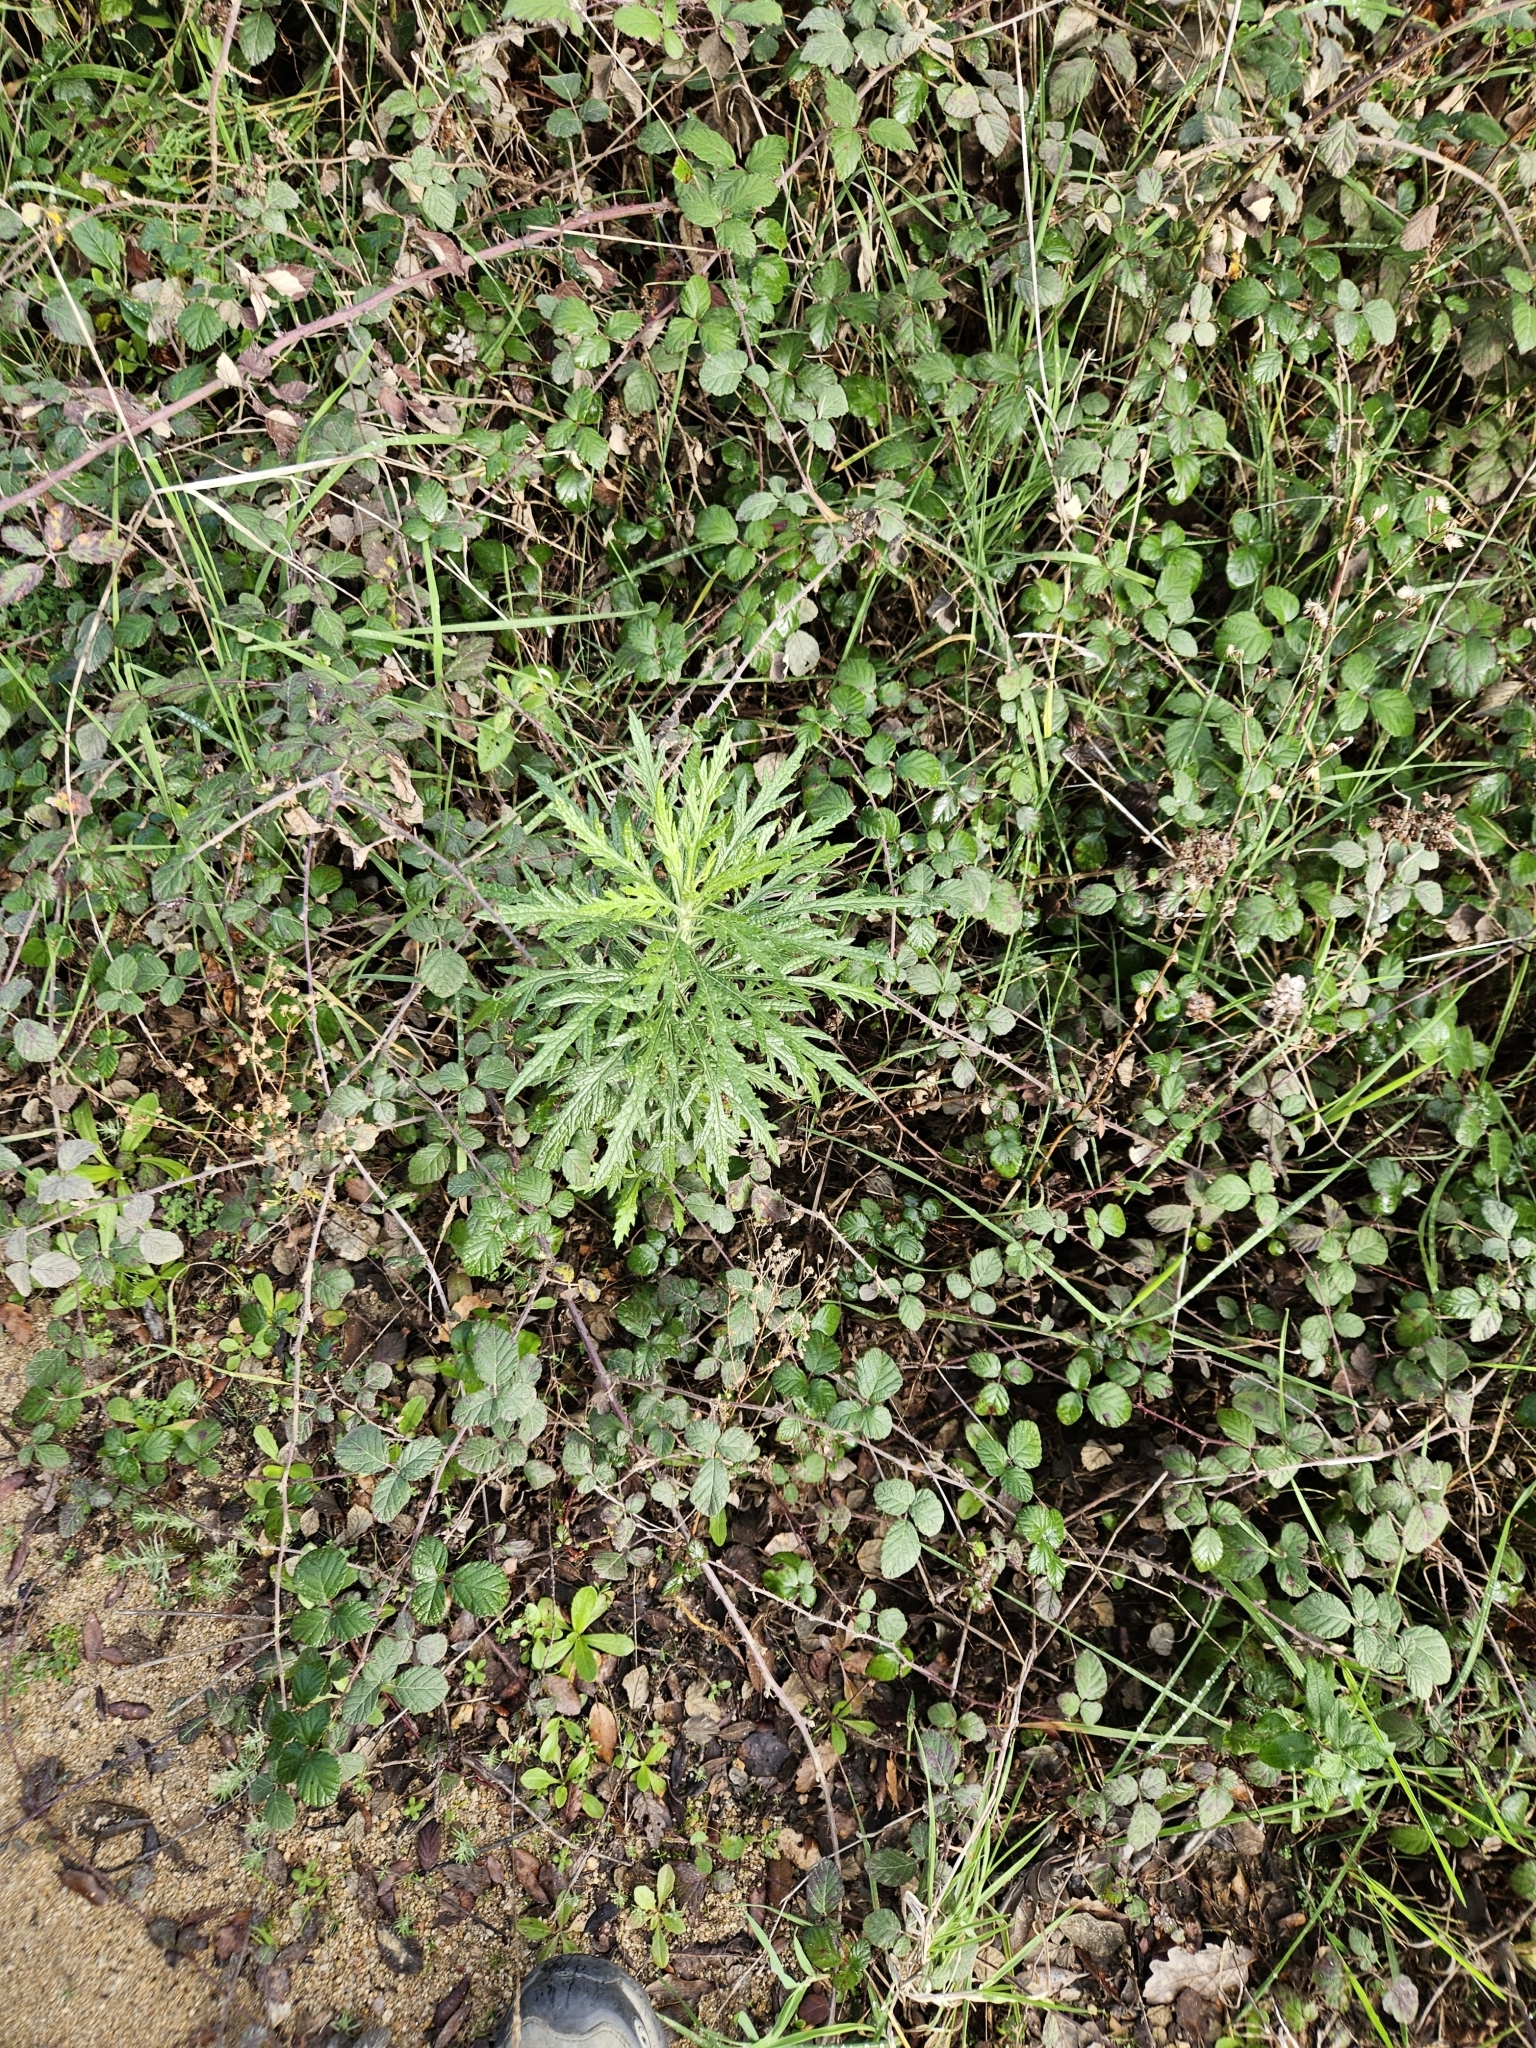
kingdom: Plantae
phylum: Tracheophyta
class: Magnoliopsida
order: Asterales
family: Asteraceae
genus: Senecio
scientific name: Senecio pterophorus
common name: Shoddy ragwort
